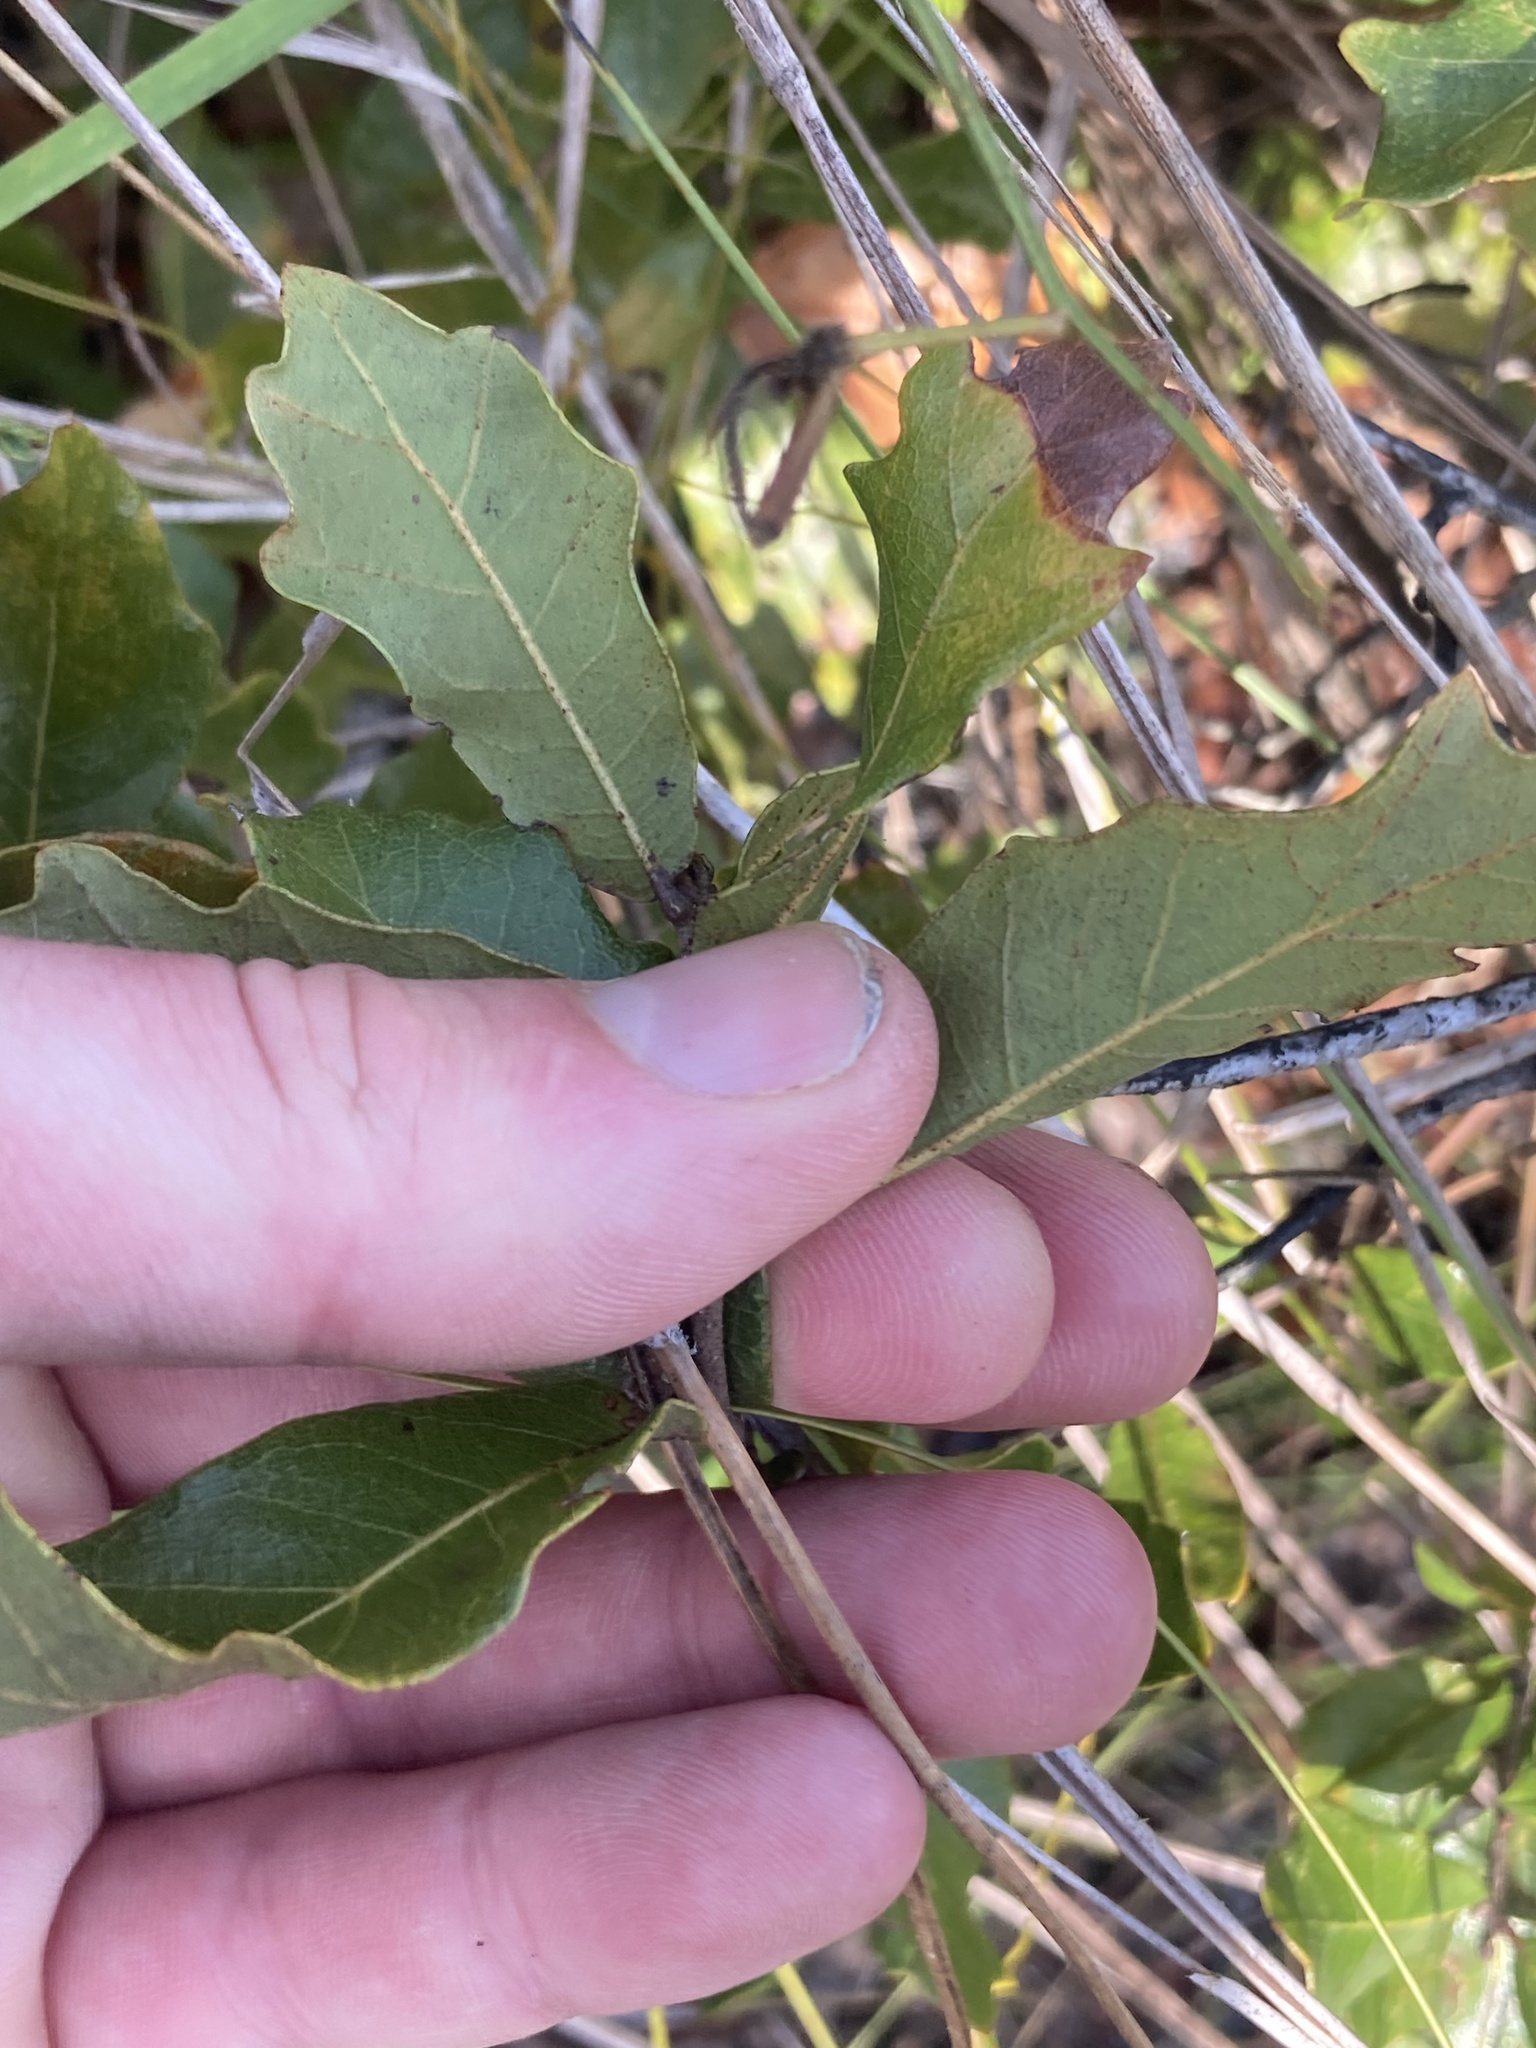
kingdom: Plantae
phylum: Tracheophyta
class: Magnoliopsida
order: Fagales
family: Fagaceae
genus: Quercus
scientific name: Quercus chapmanii
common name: Chapman oak
